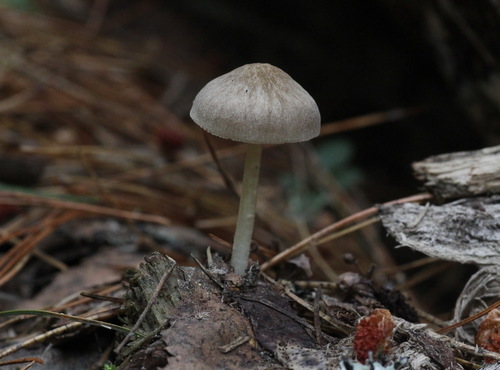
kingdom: Fungi
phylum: Basidiomycota
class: Agaricomycetes
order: Agaricales
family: Pluteaceae
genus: Pluteus
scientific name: Pluteus semibulbosus
